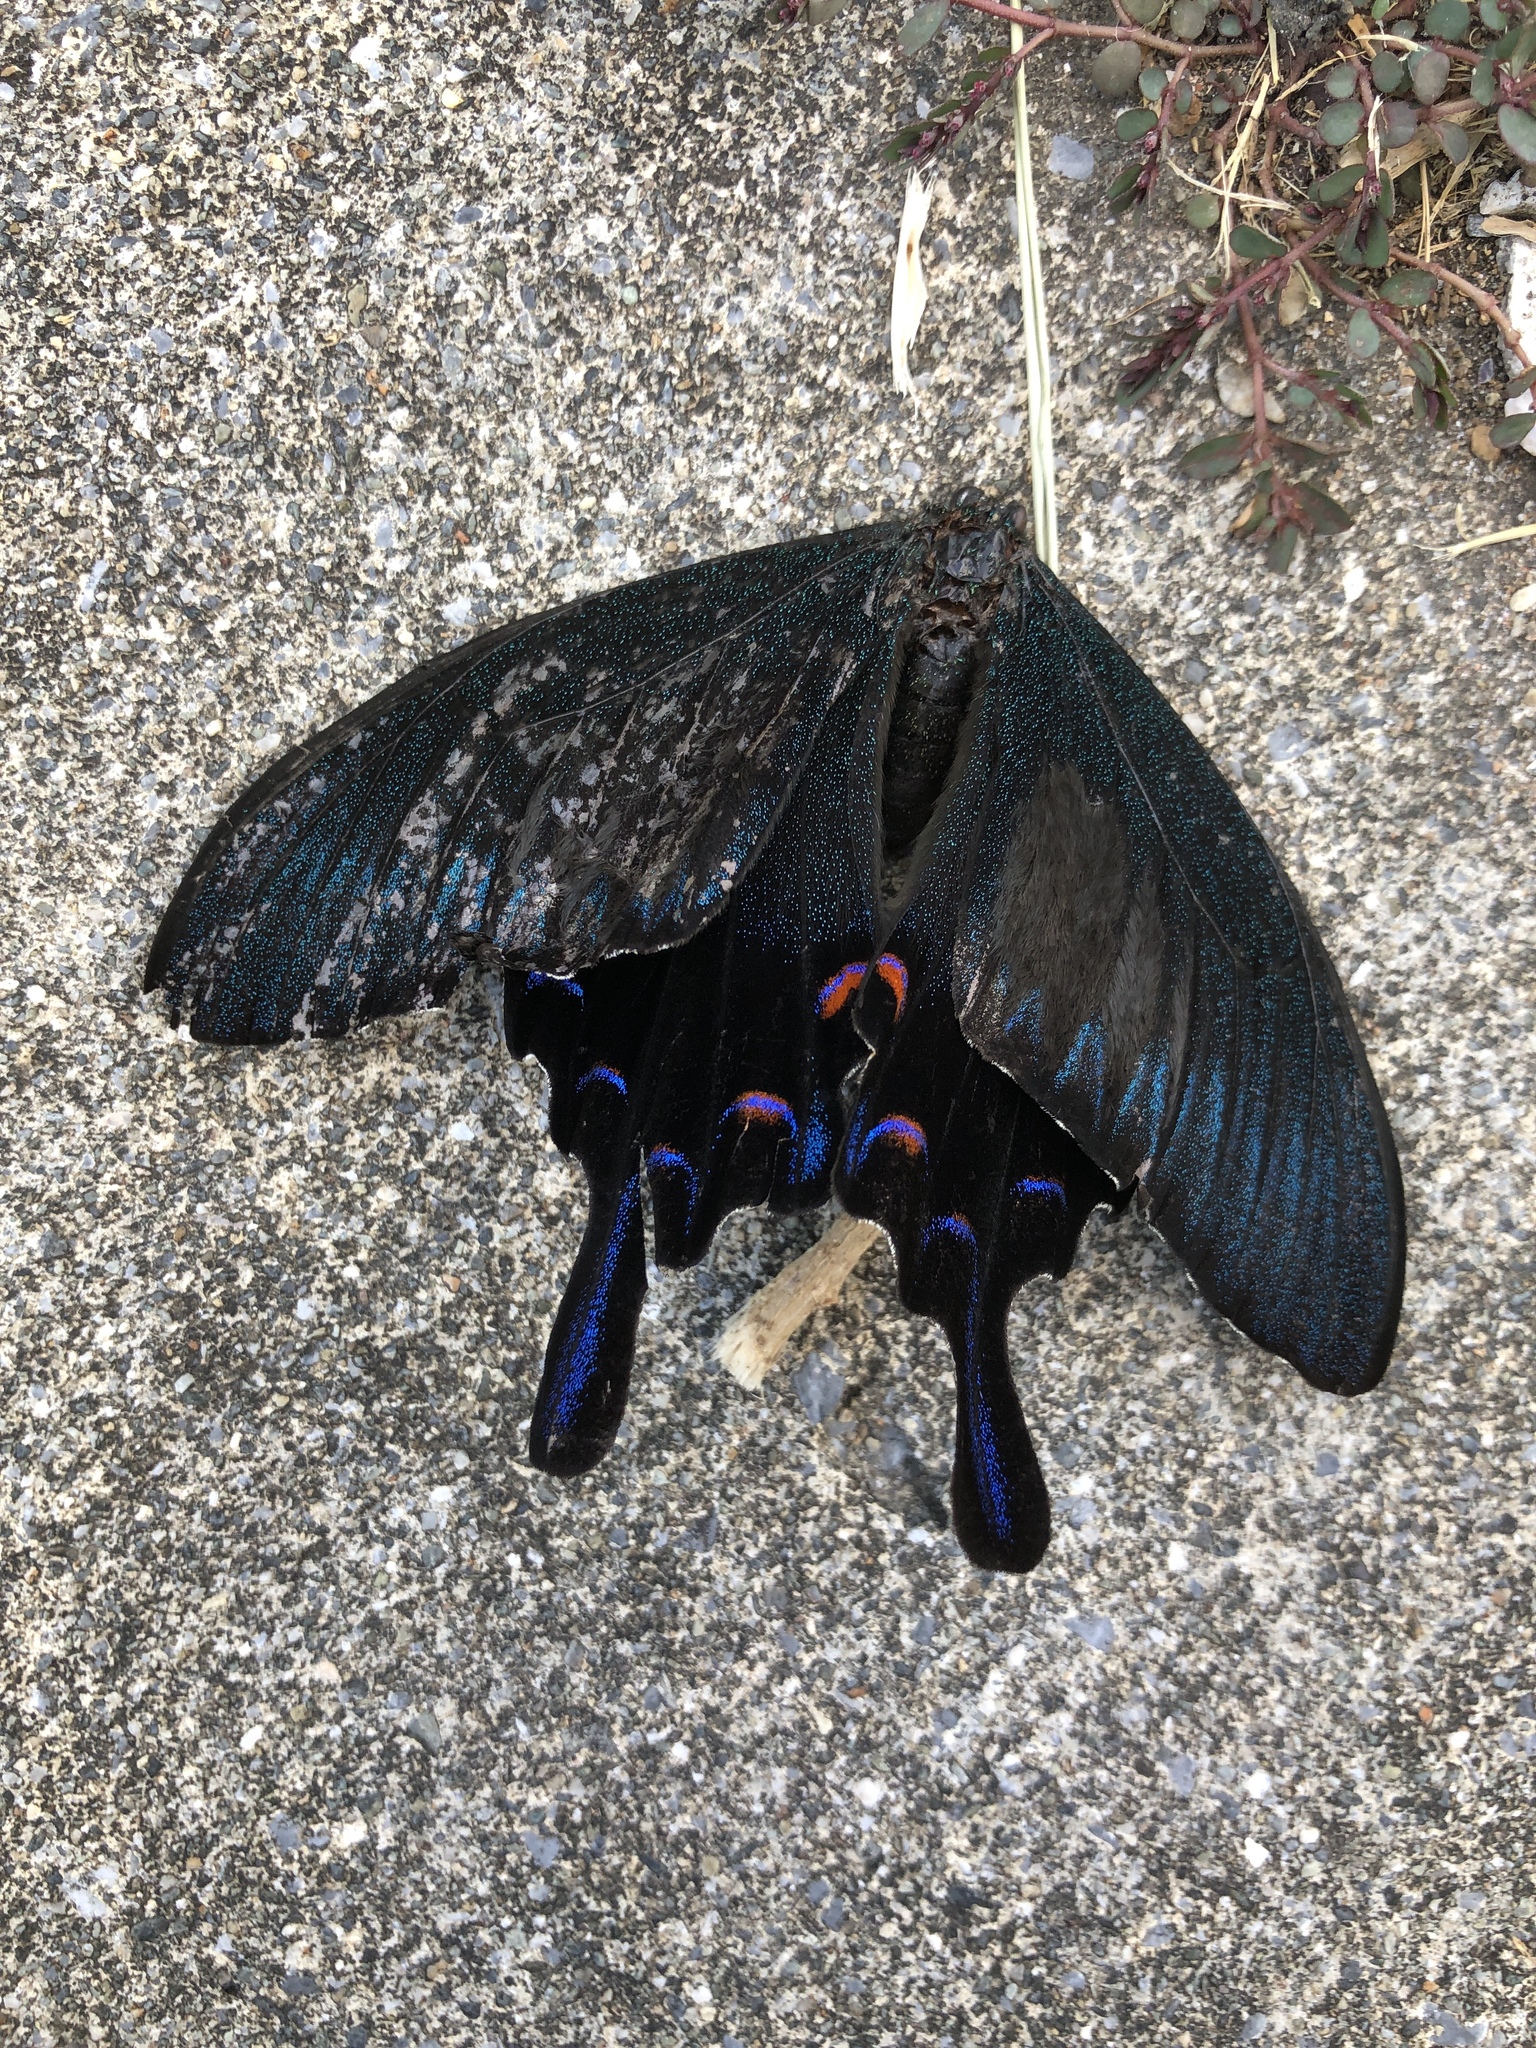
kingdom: Animalia
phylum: Arthropoda
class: Insecta
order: Lepidoptera
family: Papilionidae
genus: Papilio
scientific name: Papilio
